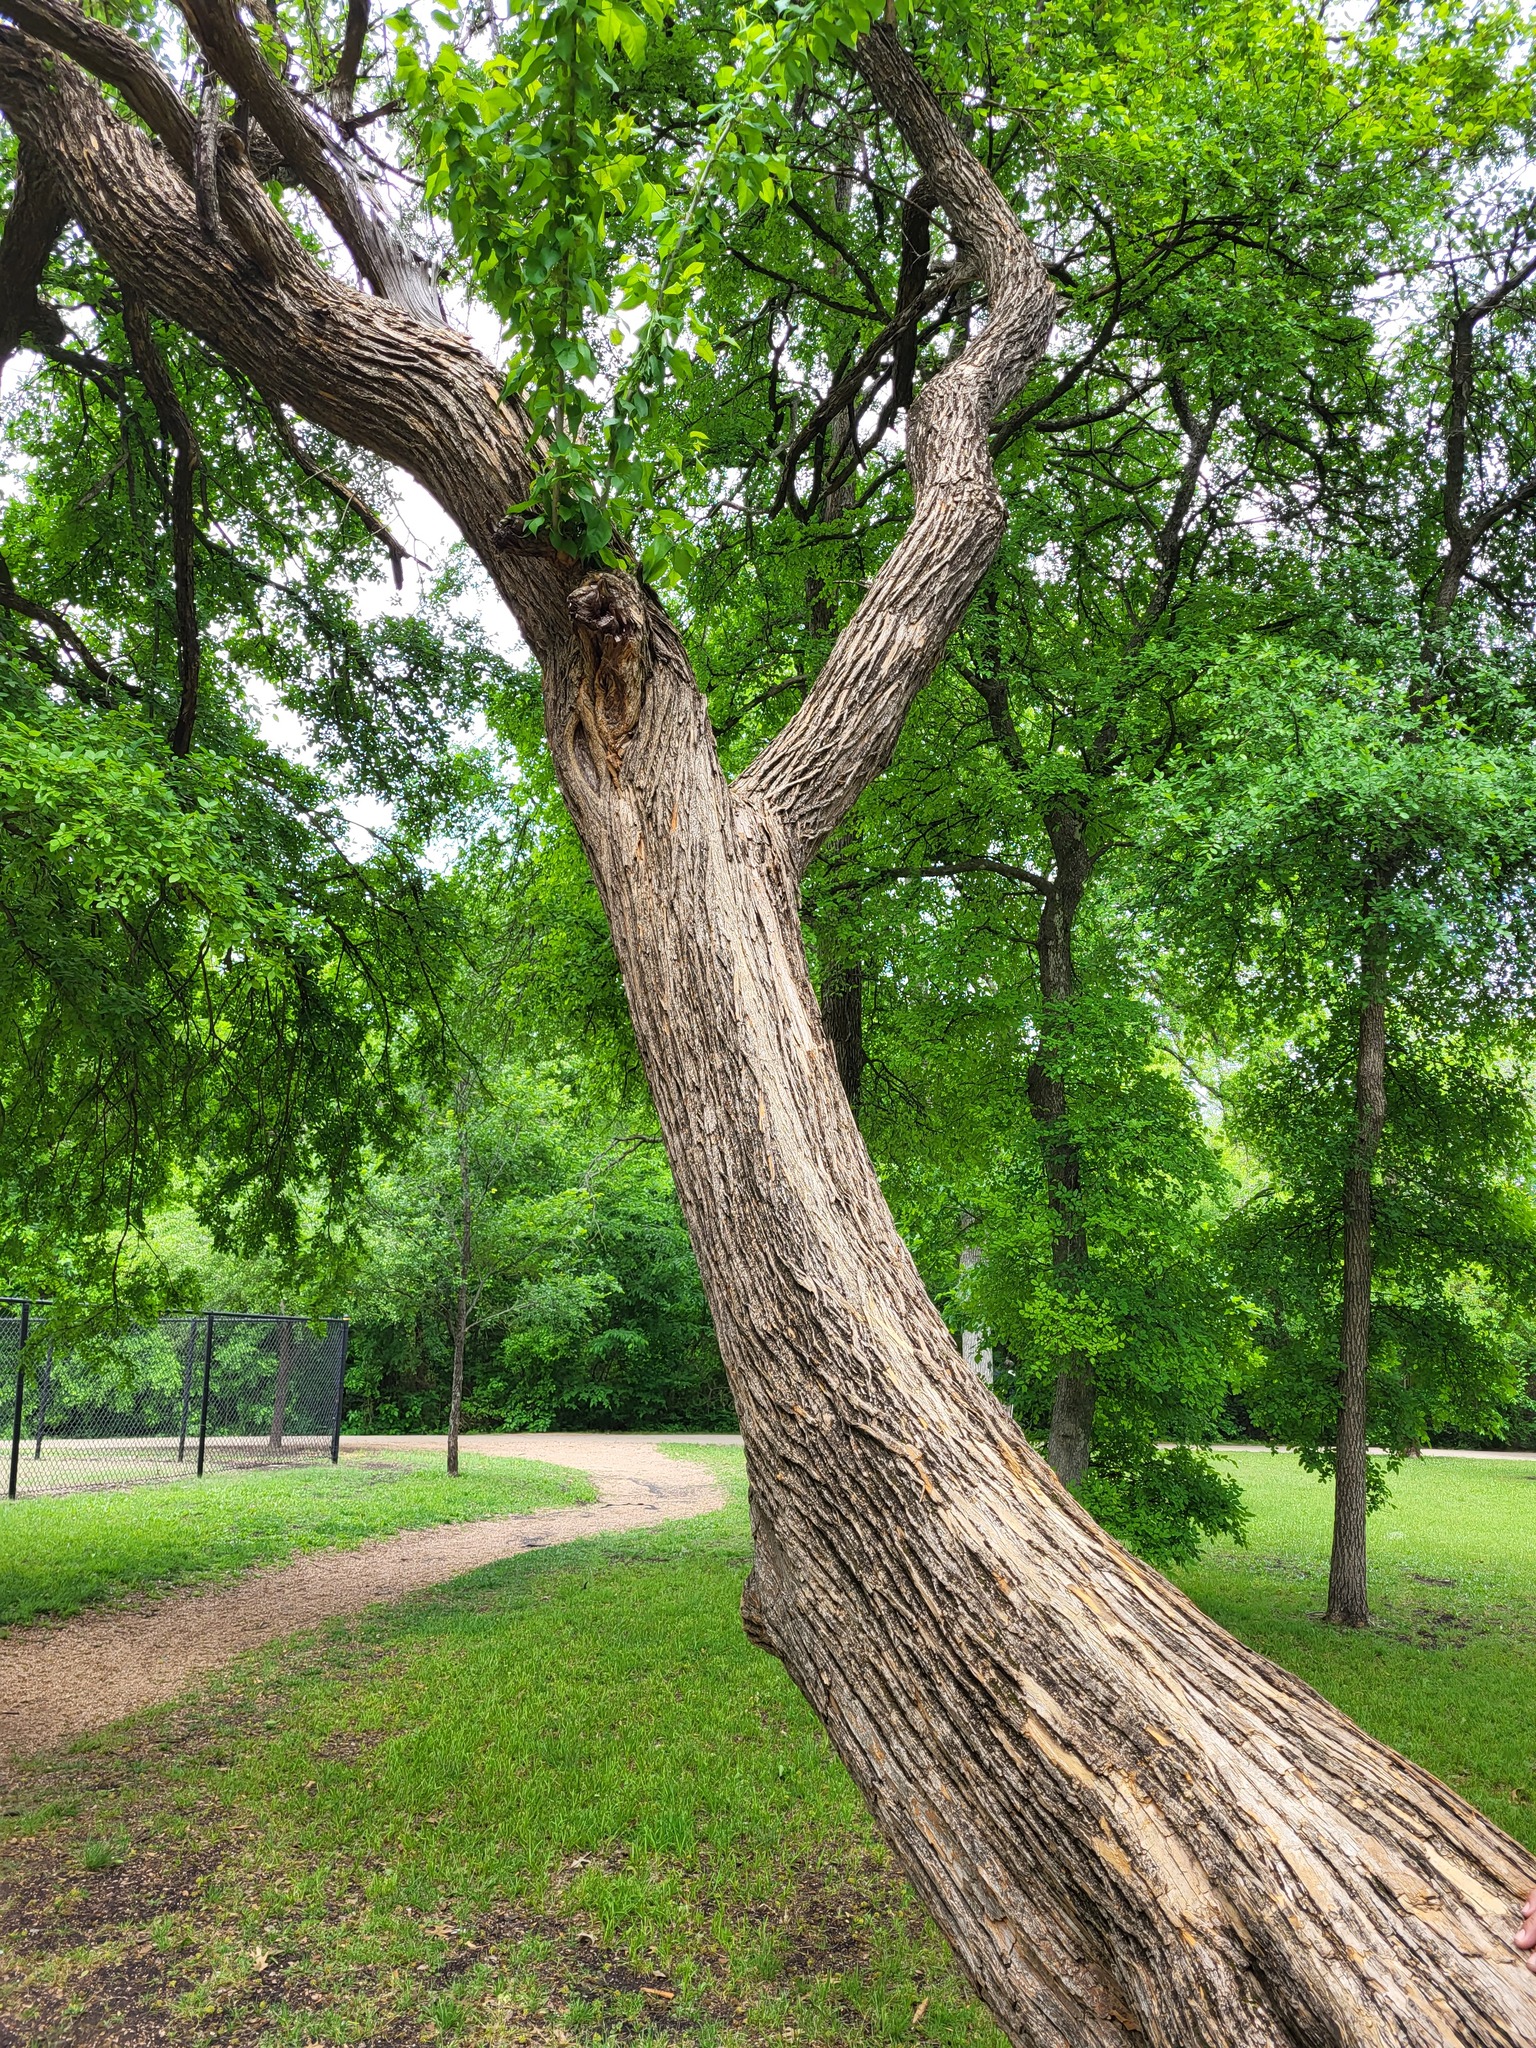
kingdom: Plantae
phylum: Tracheophyta
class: Magnoliopsida
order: Rosales
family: Moraceae
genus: Maclura
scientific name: Maclura pomifera
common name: Osage-orange
